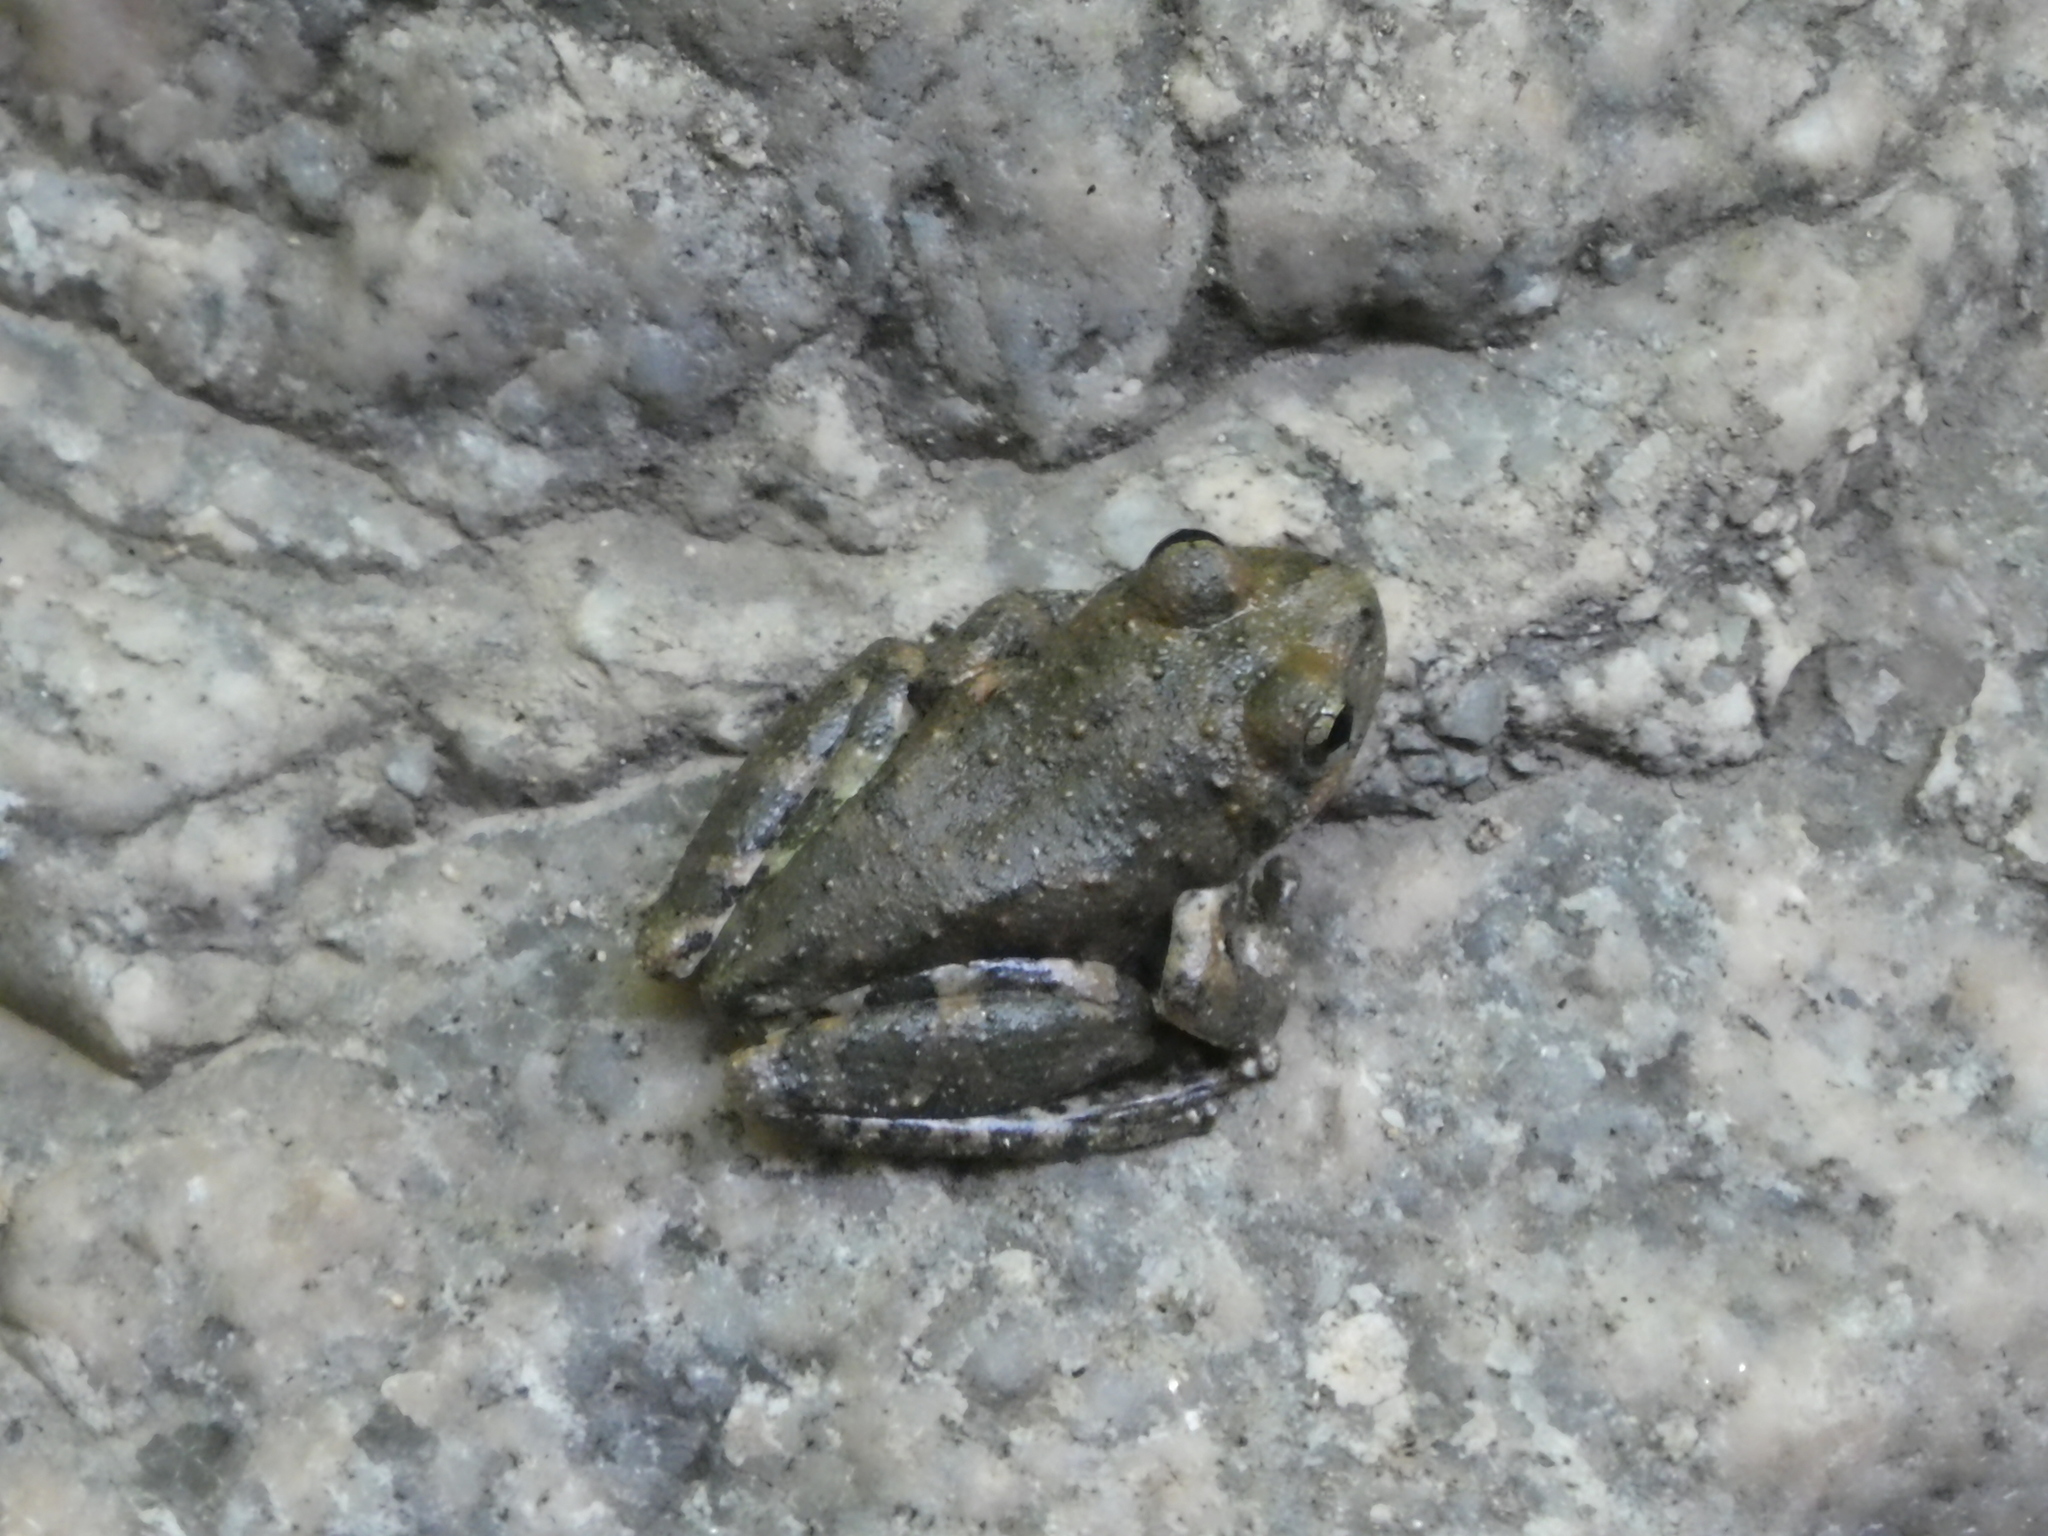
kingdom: Animalia
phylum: Chordata
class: Amphibia
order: Anura
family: Hylidae
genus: Pseudacris
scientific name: Pseudacris cadaverina
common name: California chorus frog
